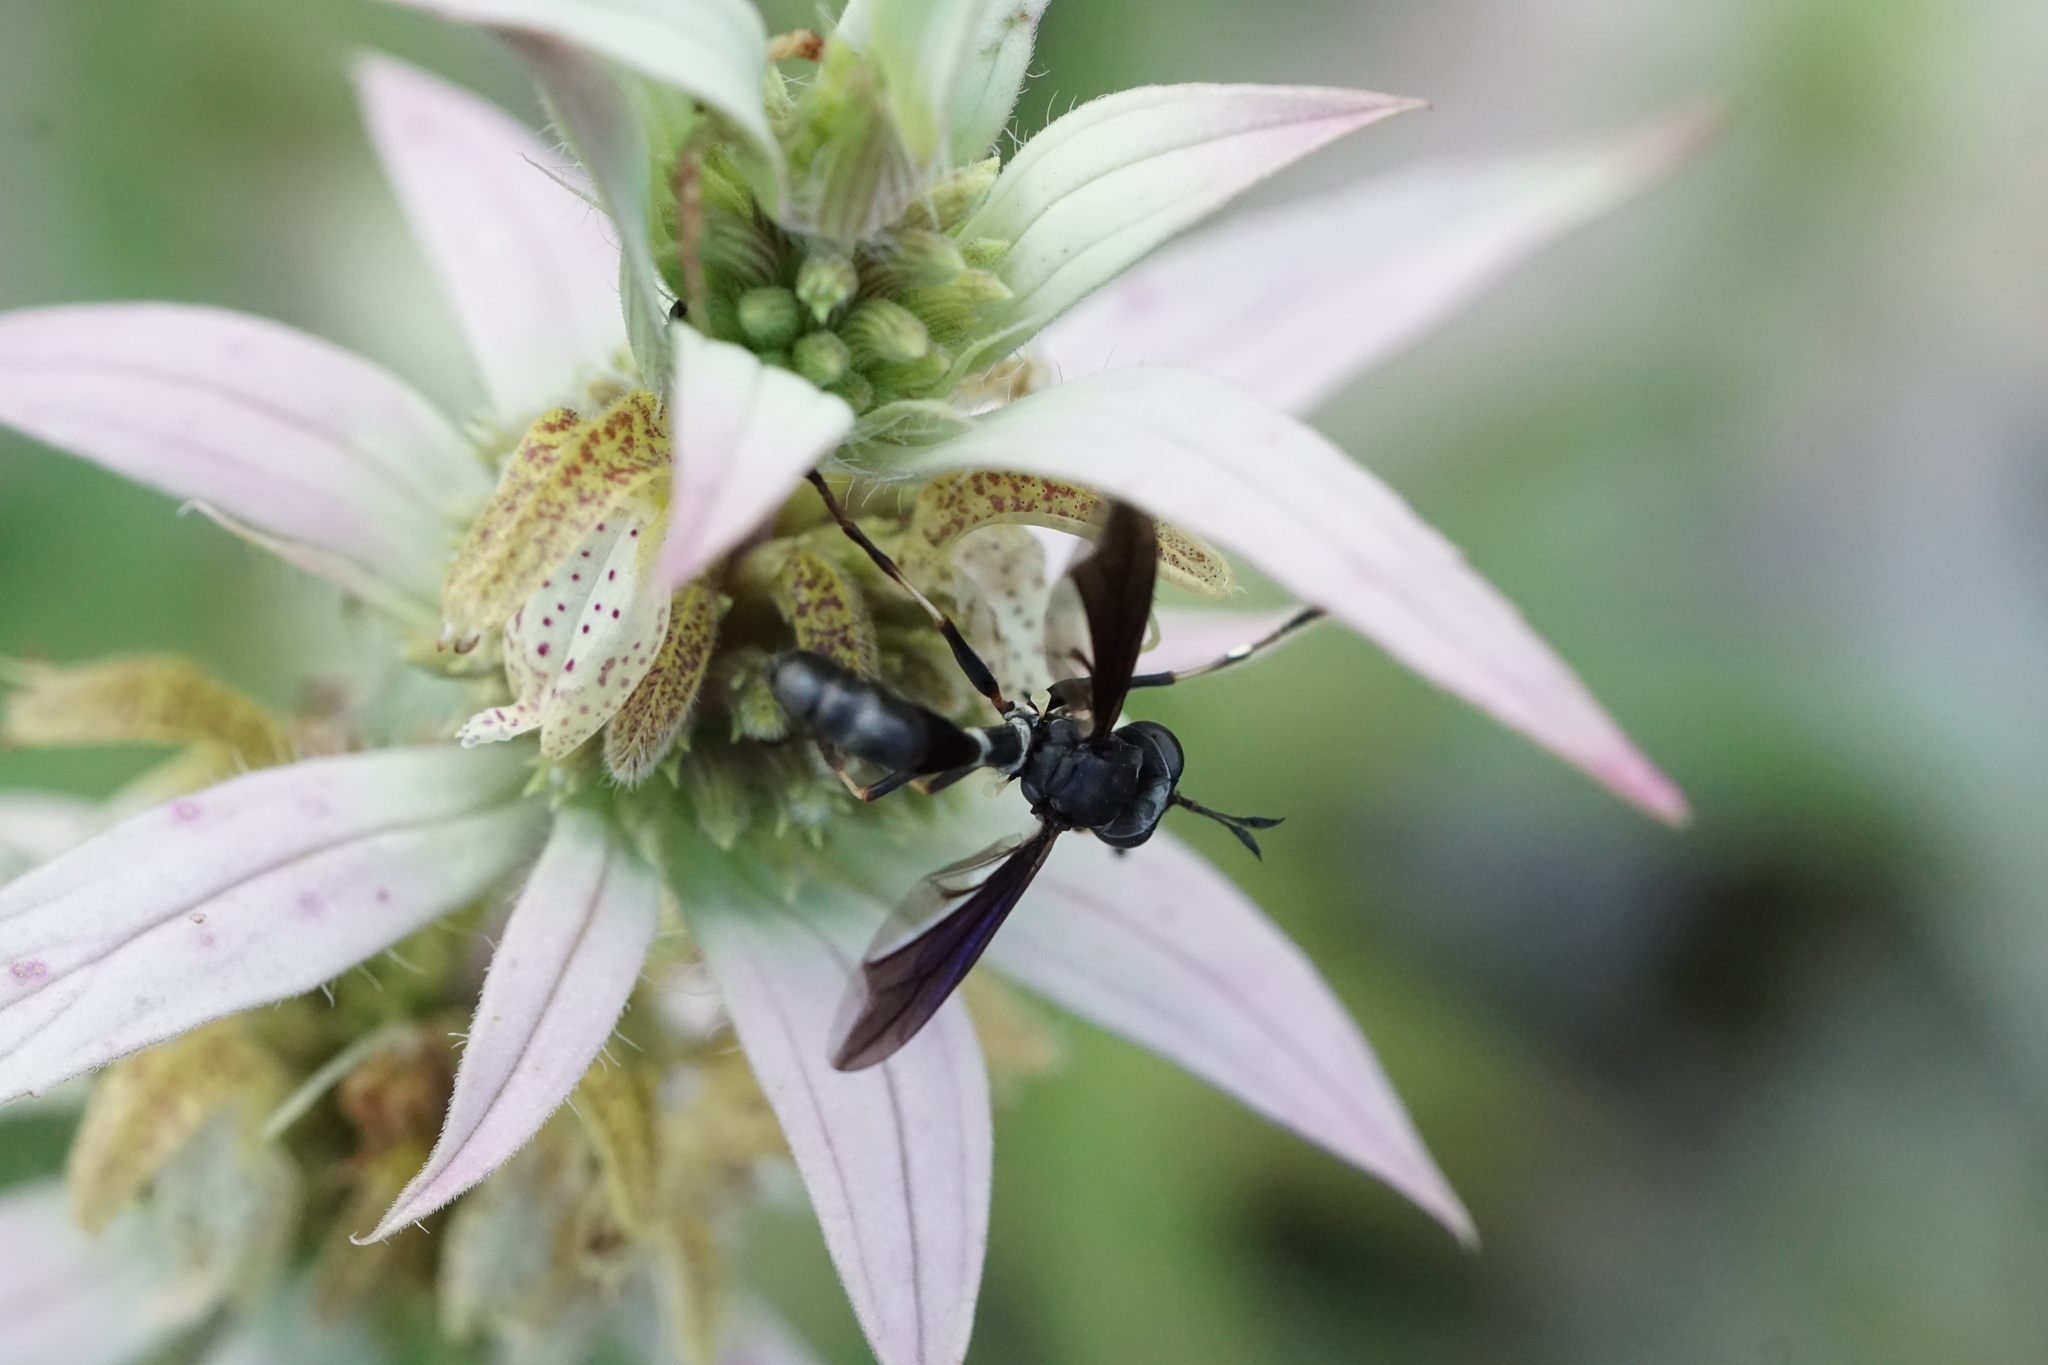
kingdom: Animalia
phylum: Arthropoda
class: Insecta
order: Diptera
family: Conopidae
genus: Physocephala
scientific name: Physocephala tibialis
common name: Common eastern physocephala
